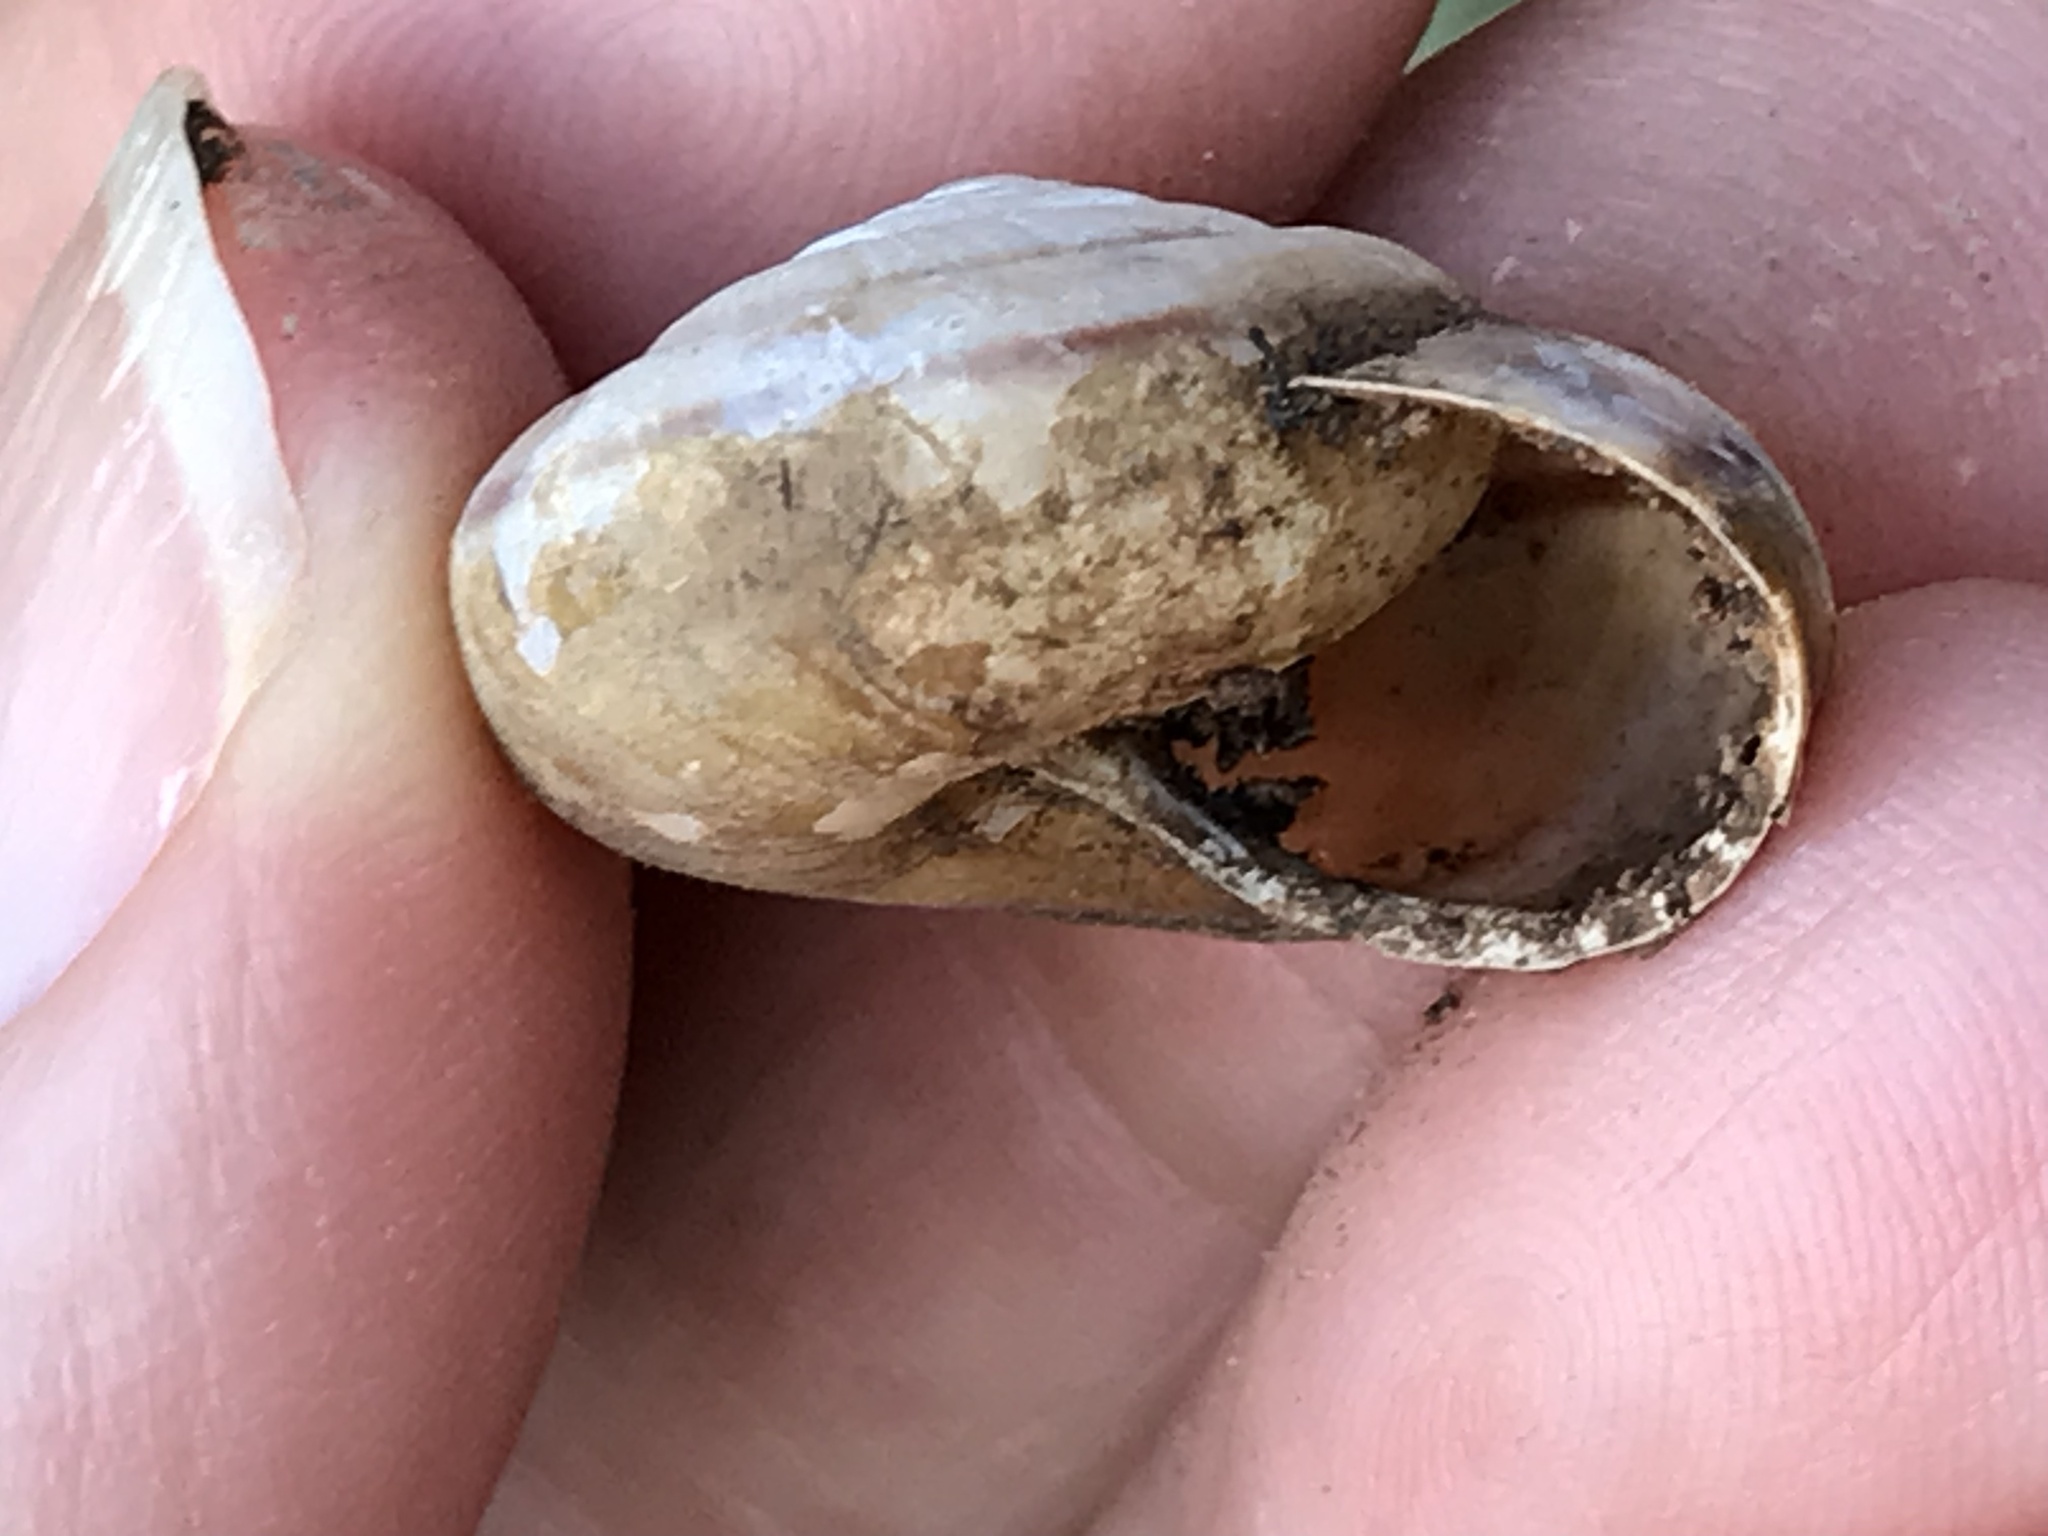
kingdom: Animalia
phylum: Mollusca
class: Gastropoda
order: Stylommatophora
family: Xanthonychidae
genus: Helminthoglypta
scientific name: Helminthoglypta sonoma
